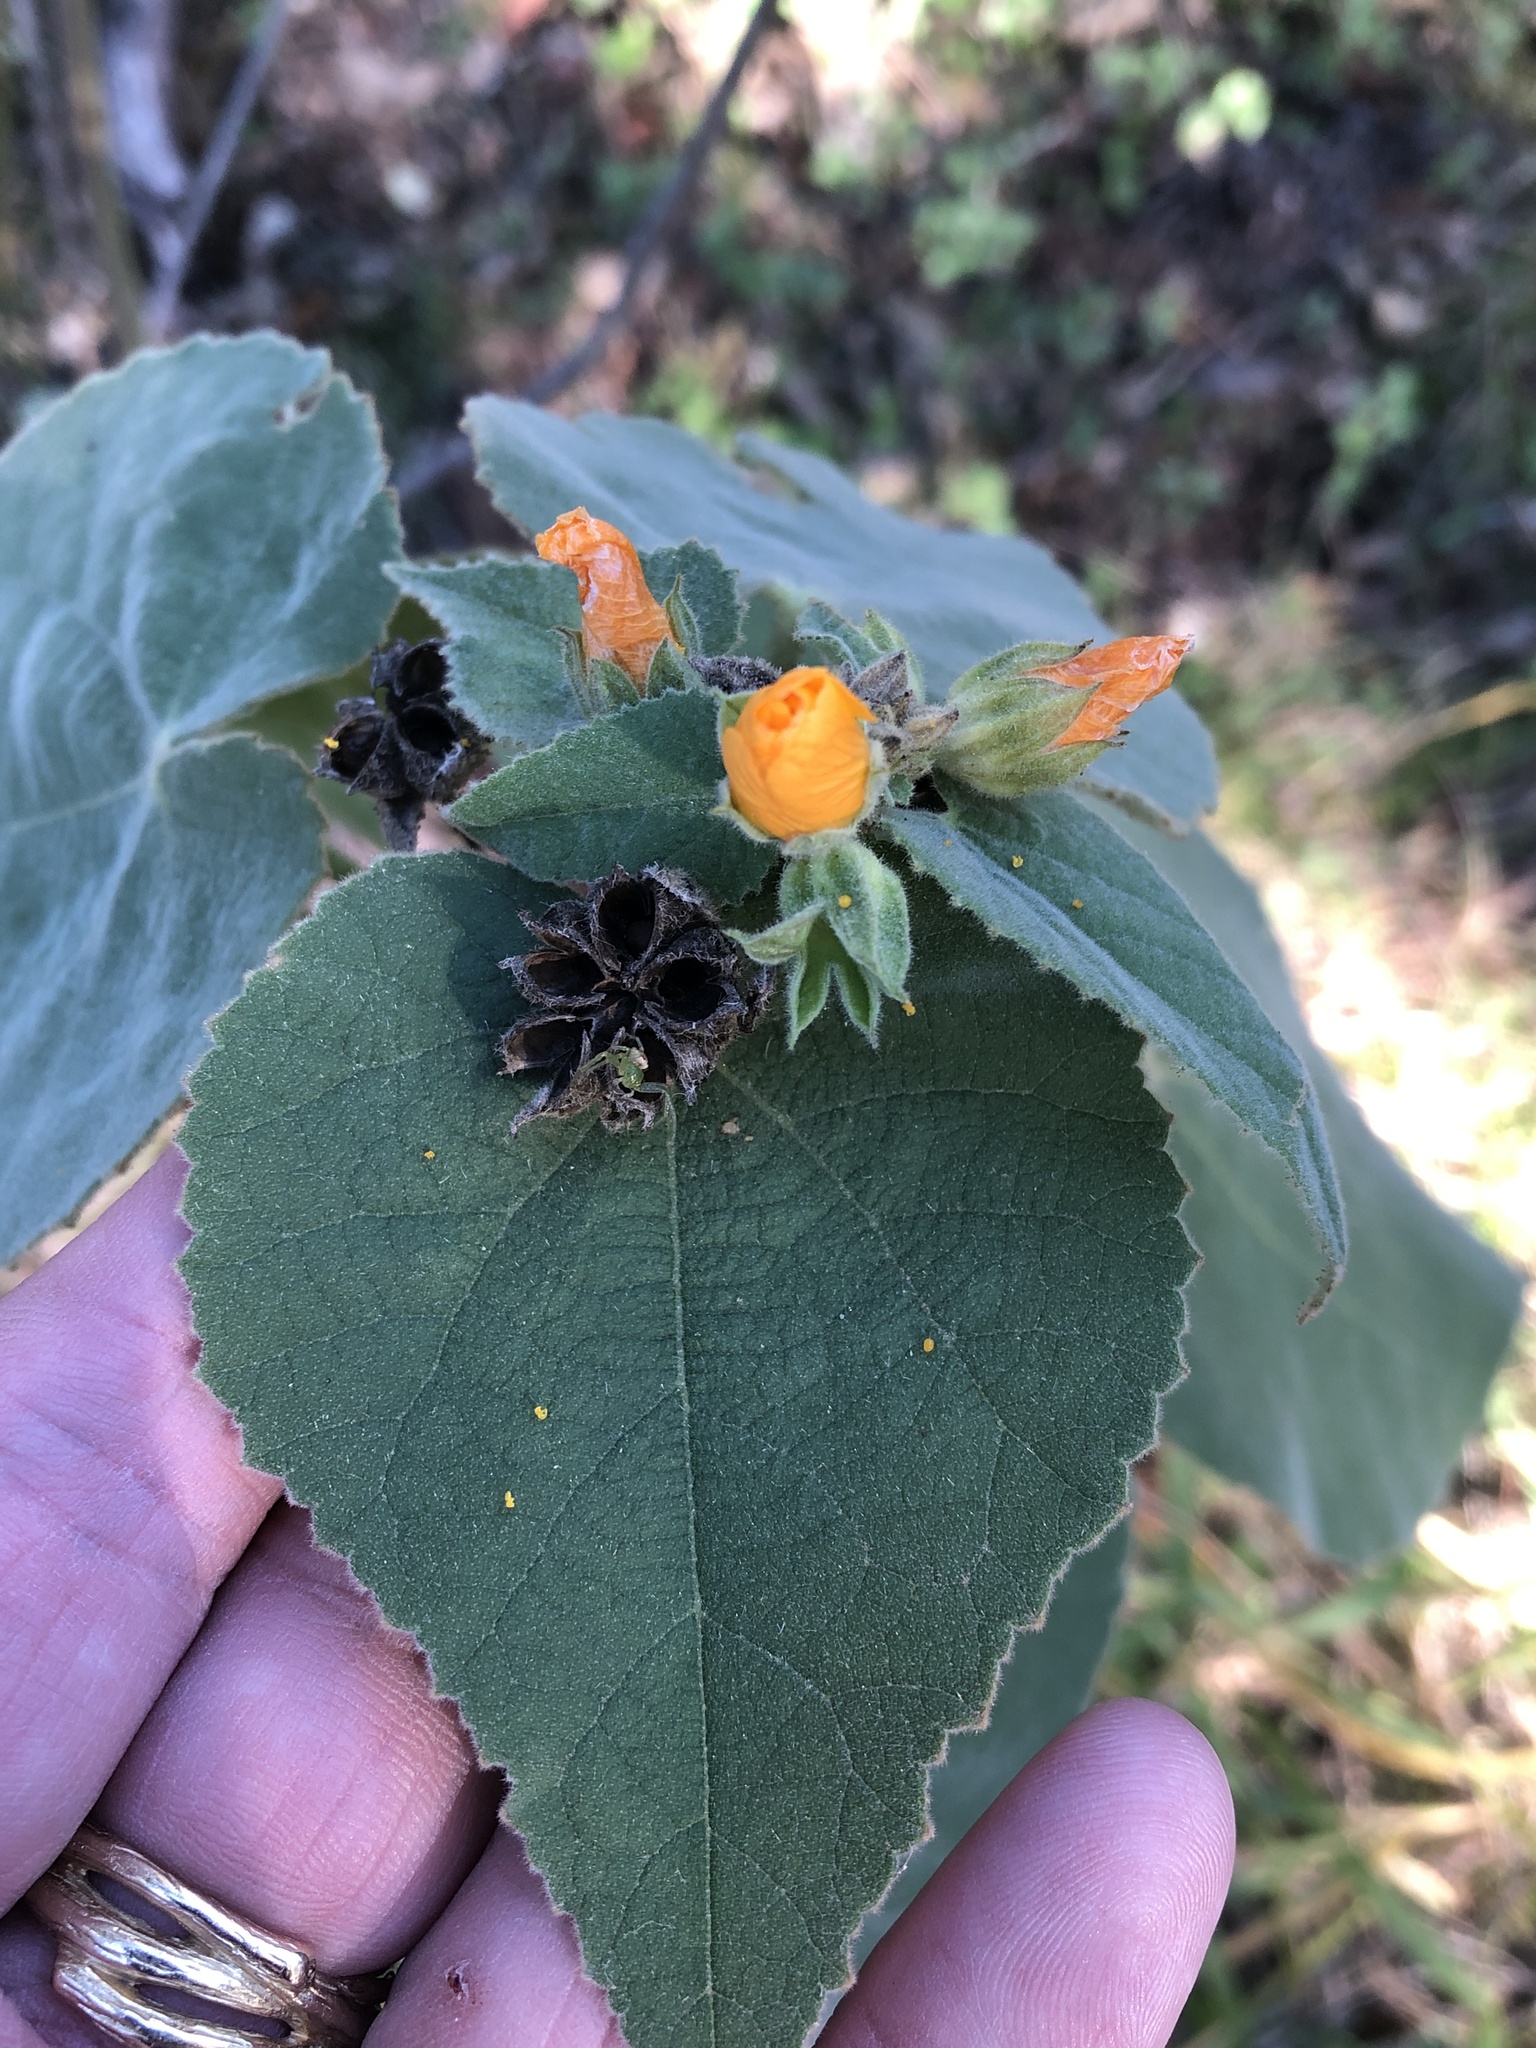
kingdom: Plantae
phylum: Tracheophyta
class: Magnoliopsida
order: Malvales
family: Malvaceae
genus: Allowissadula
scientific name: Allowissadula holosericea
